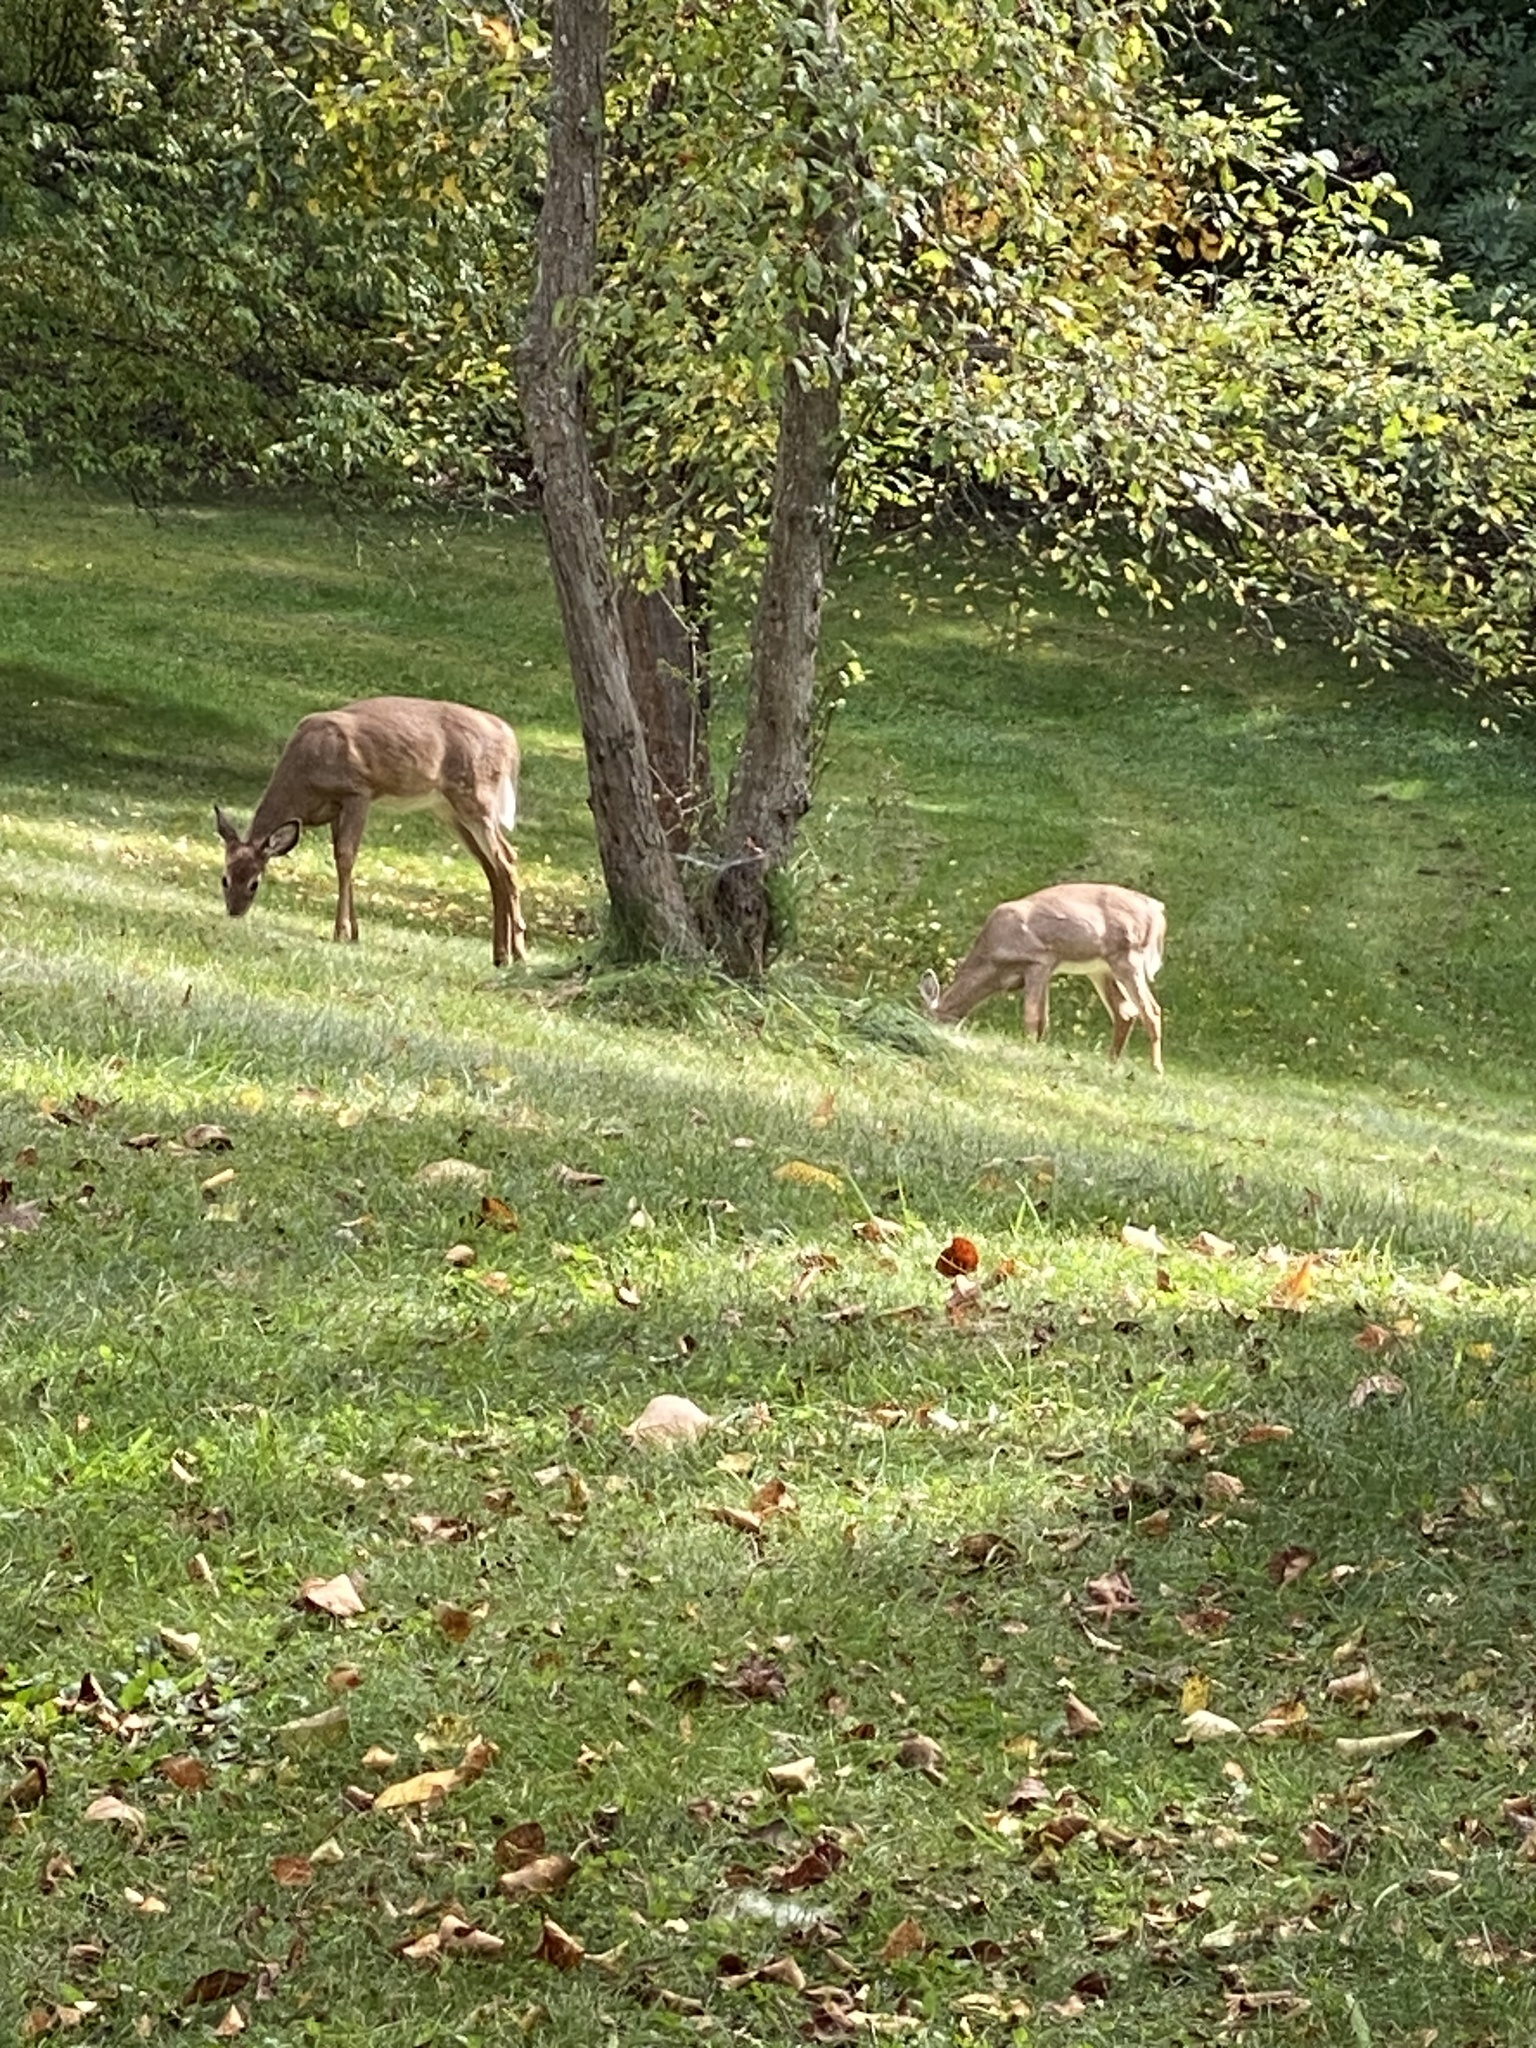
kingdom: Animalia
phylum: Chordata
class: Mammalia
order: Artiodactyla
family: Cervidae
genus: Odocoileus
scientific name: Odocoileus virginianus
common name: White-tailed deer
